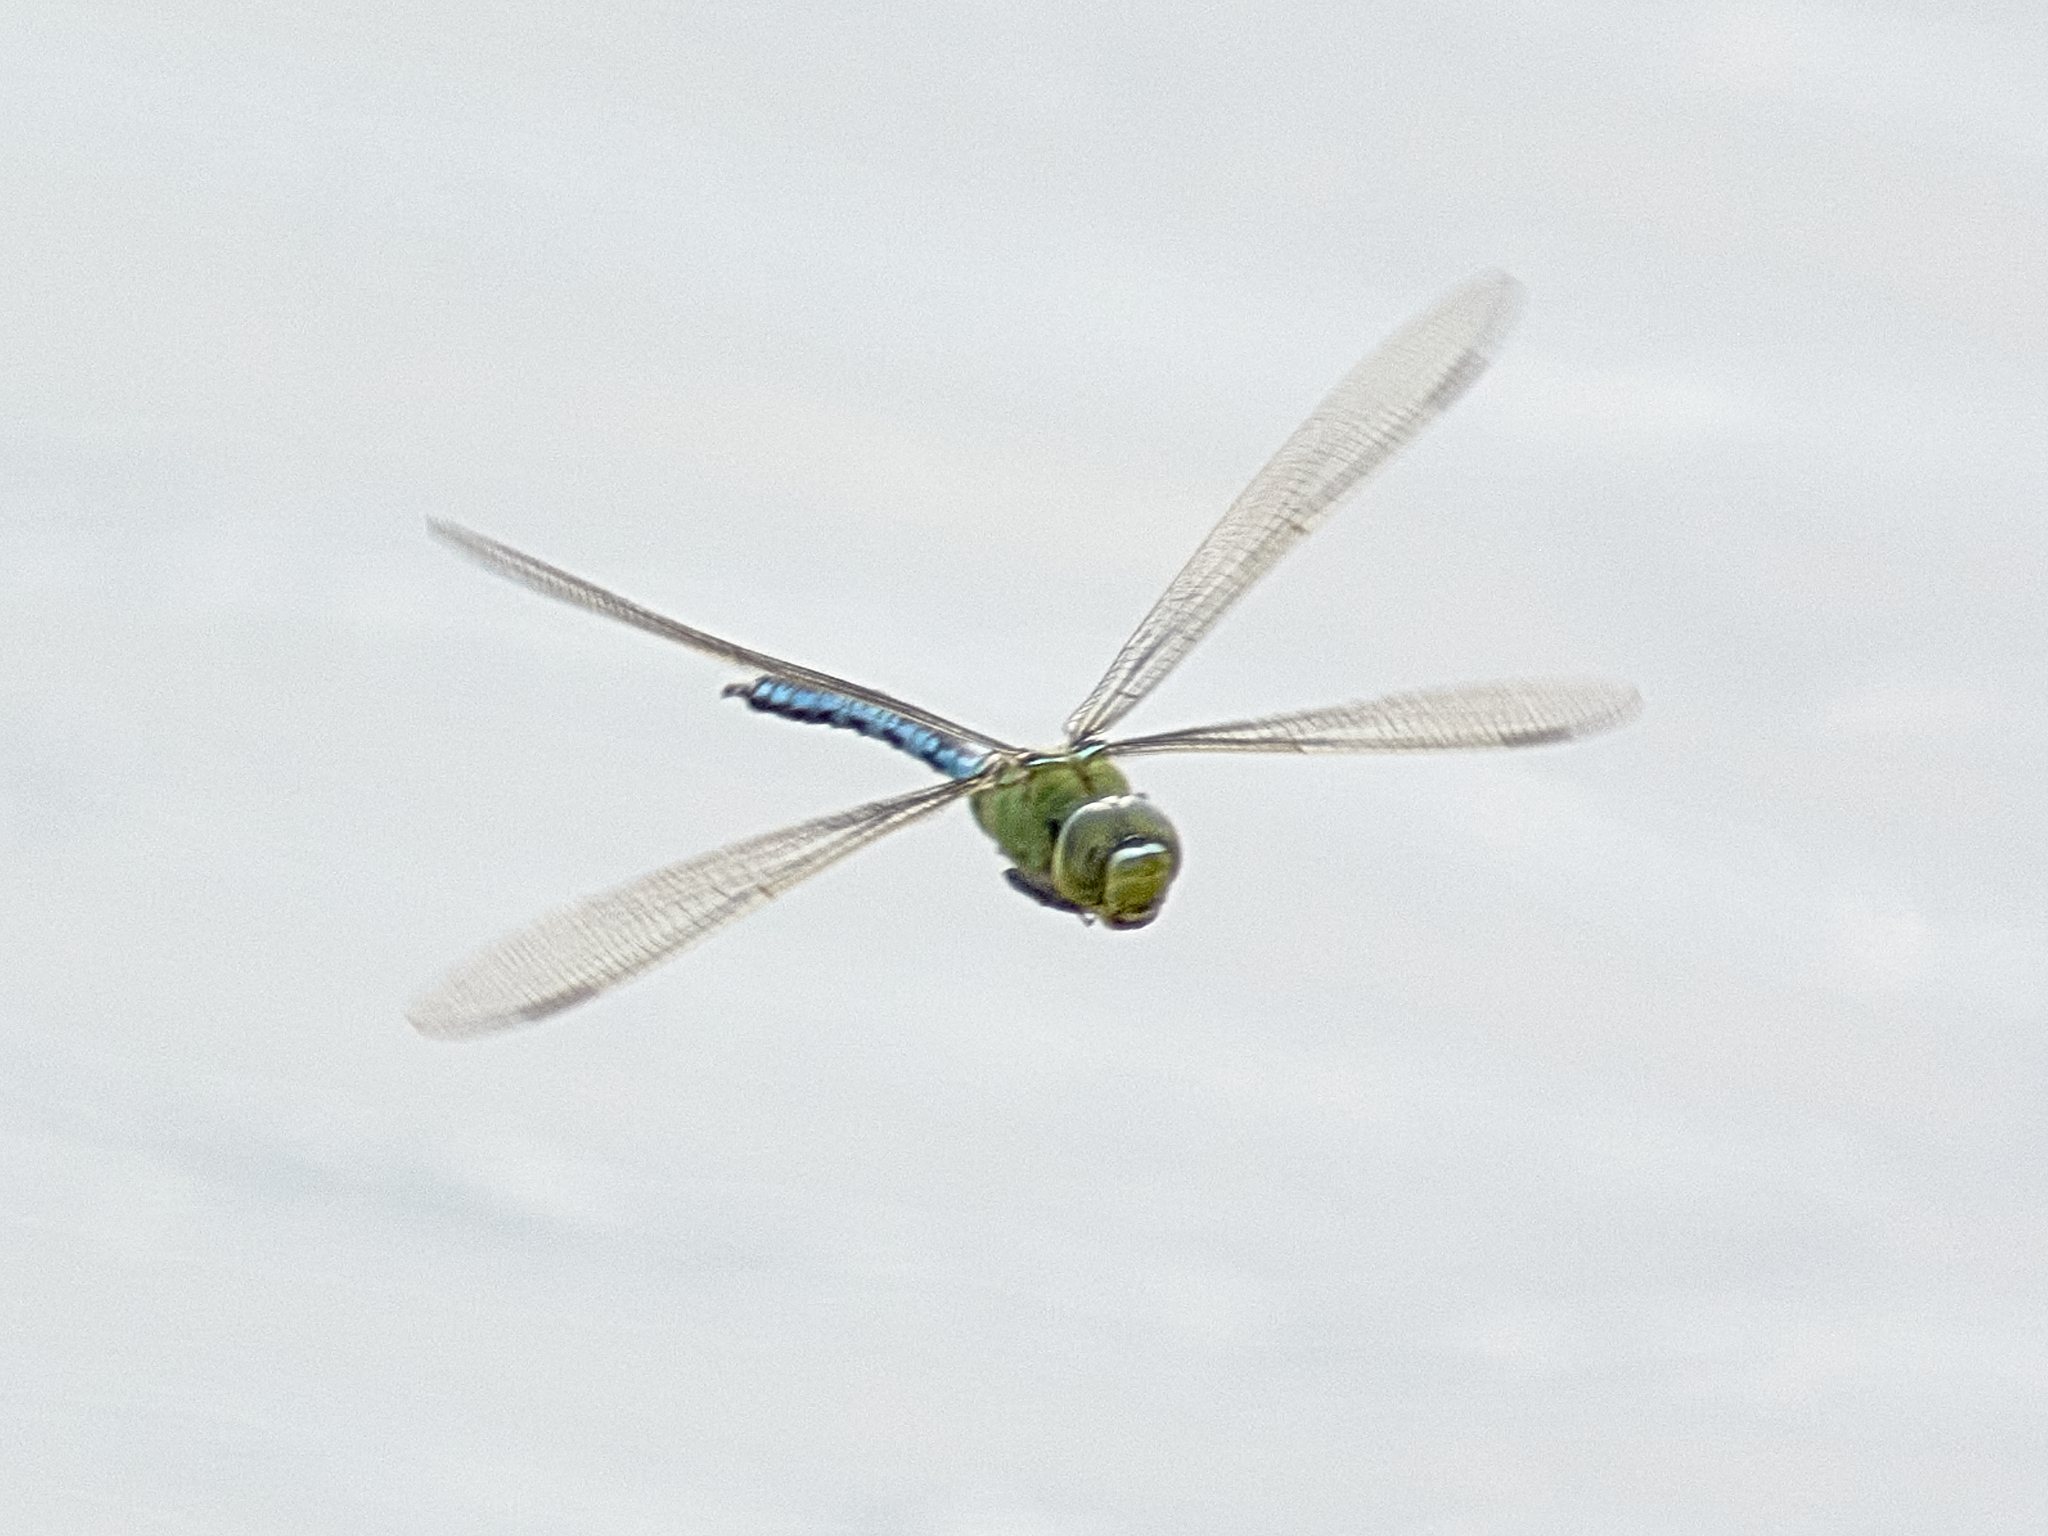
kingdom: Animalia
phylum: Arthropoda
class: Insecta
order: Odonata
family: Aeshnidae
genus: Anax
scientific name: Anax imperator
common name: Emperor dragonfly
